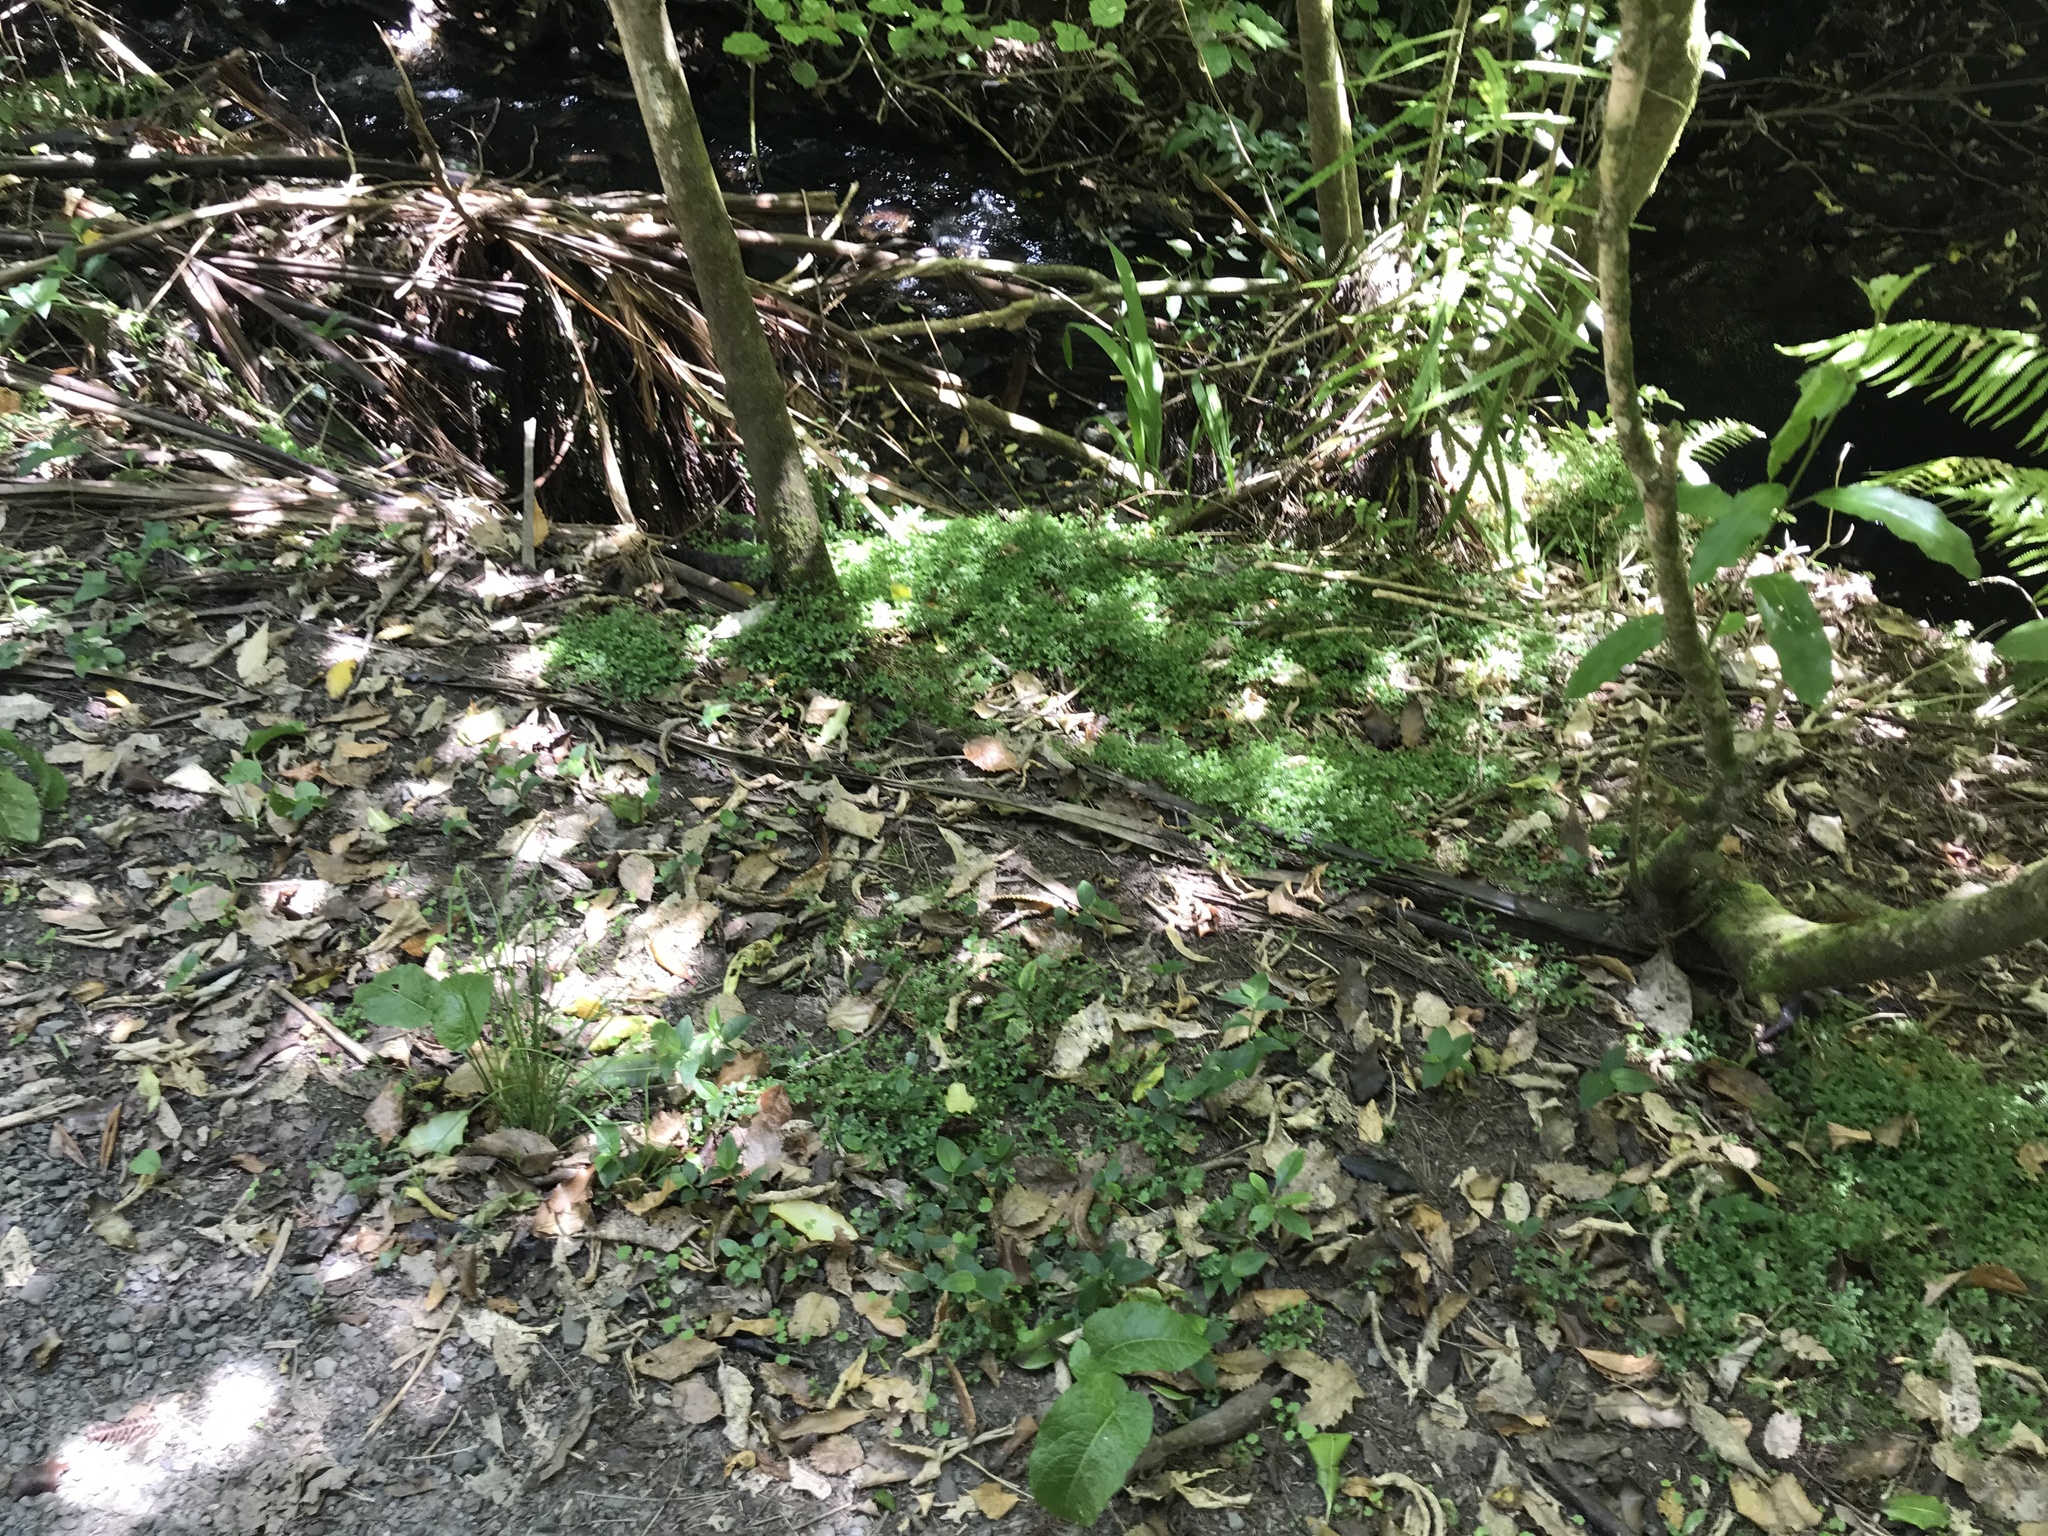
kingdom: Plantae
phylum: Tracheophyta
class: Lycopodiopsida
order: Selaginellales
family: Selaginellaceae
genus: Selaginella
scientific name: Selaginella kraussiana
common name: Krauss' spikemoss
